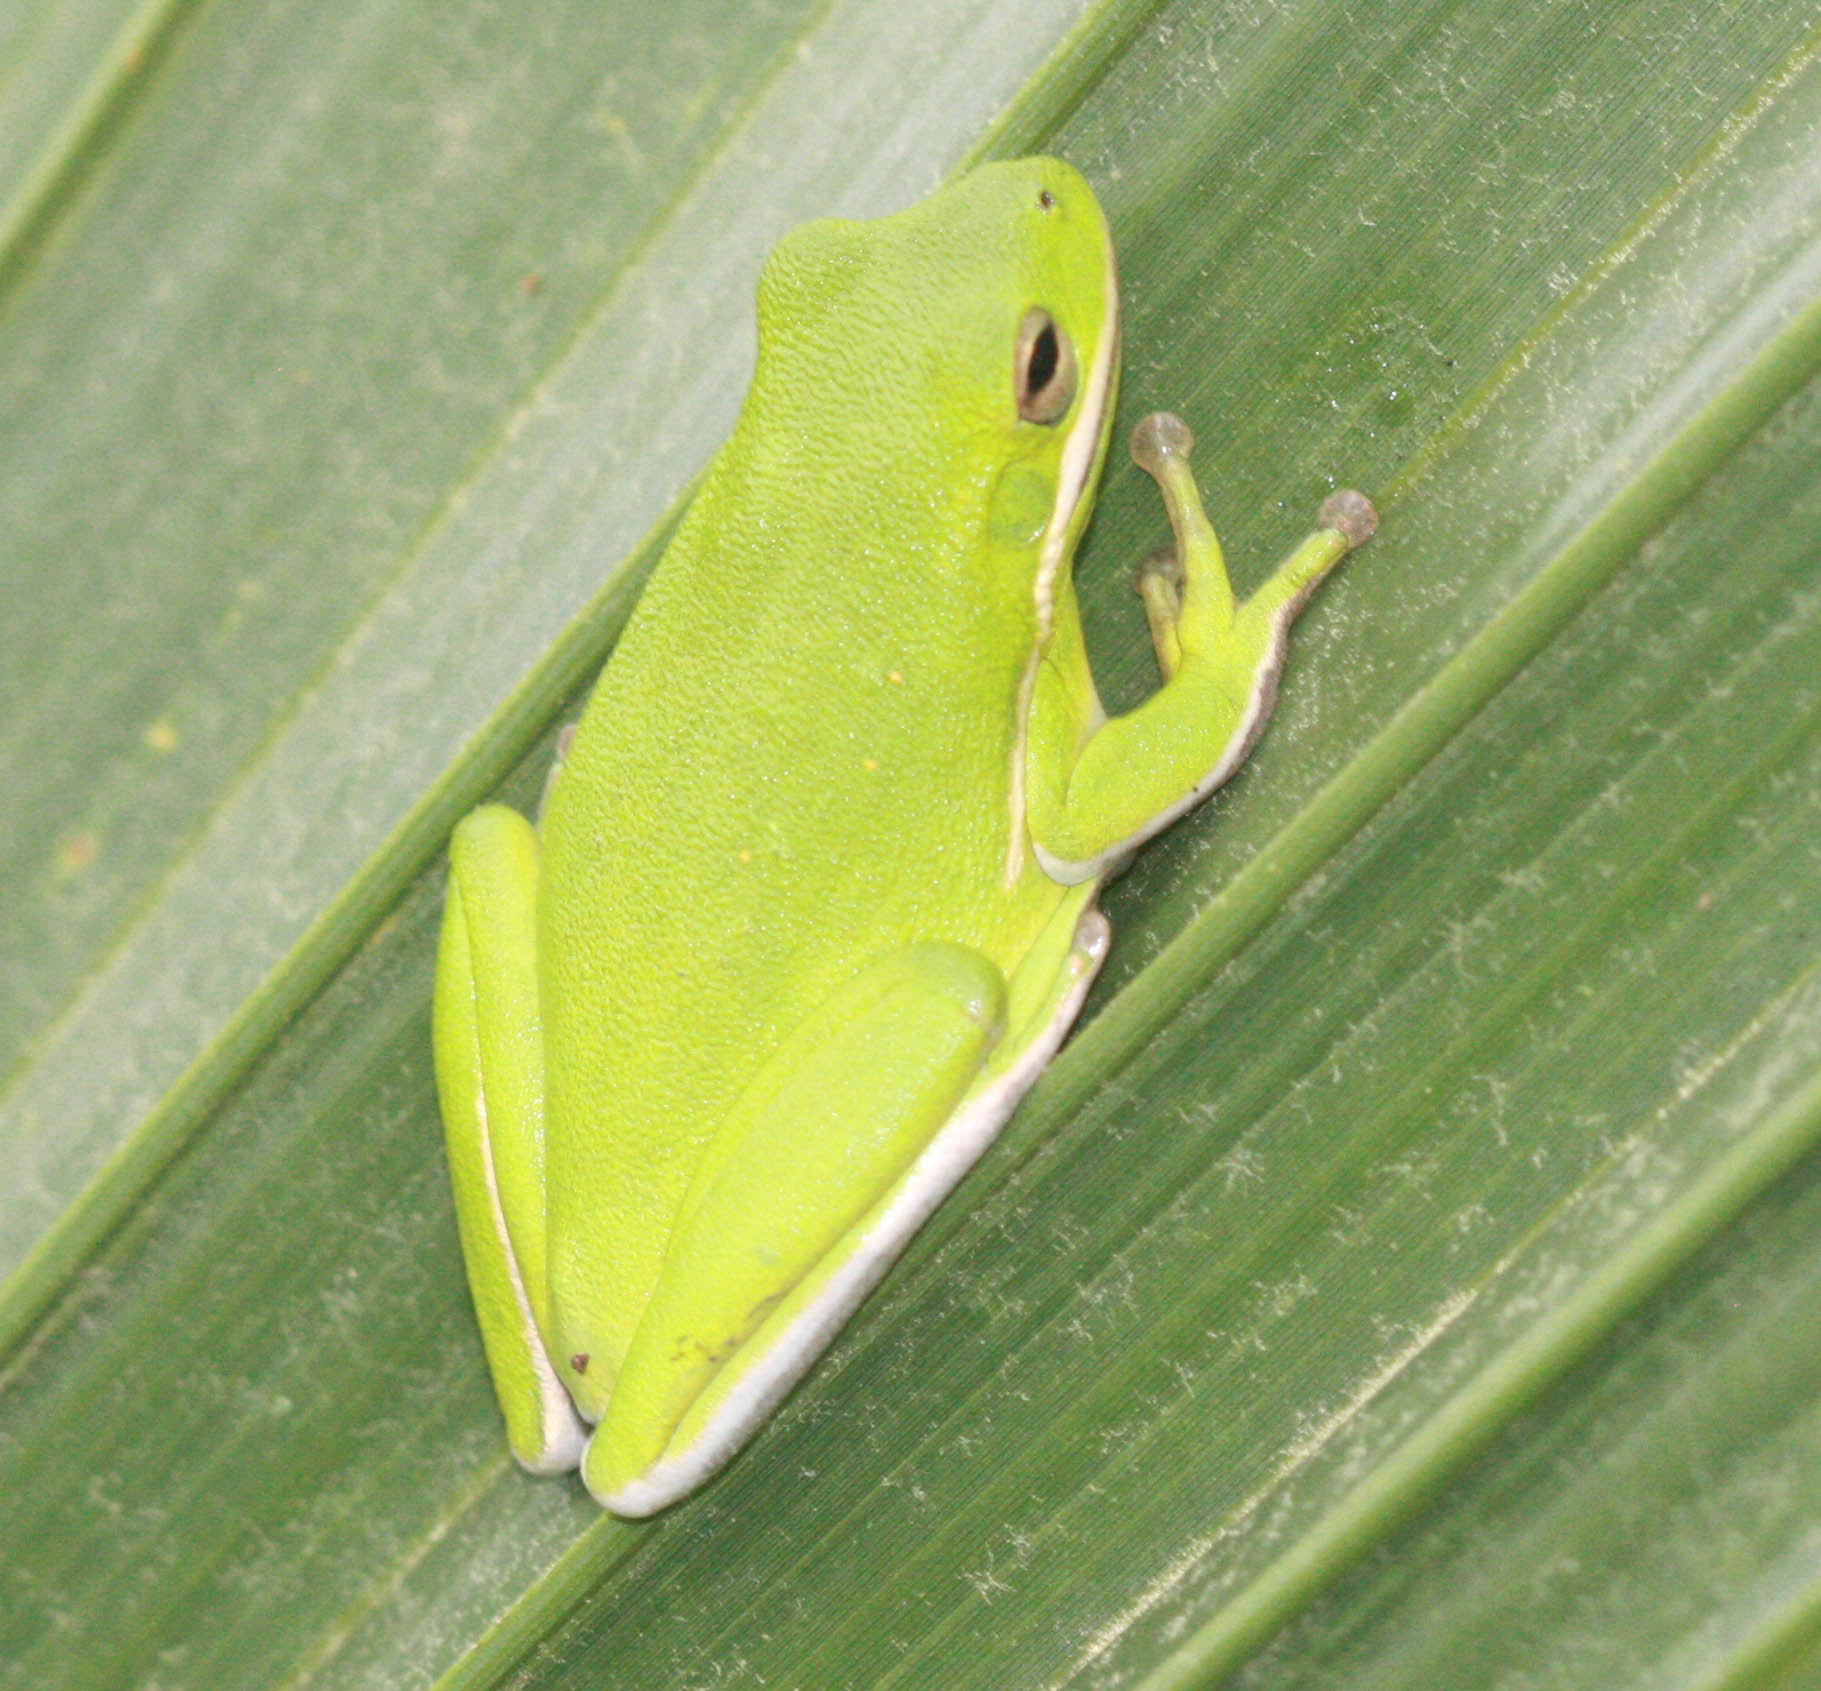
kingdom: Animalia
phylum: Chordata
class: Amphibia
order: Anura
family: Hylidae
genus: Dryophytes
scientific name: Dryophytes cinereus
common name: Green treefrog
